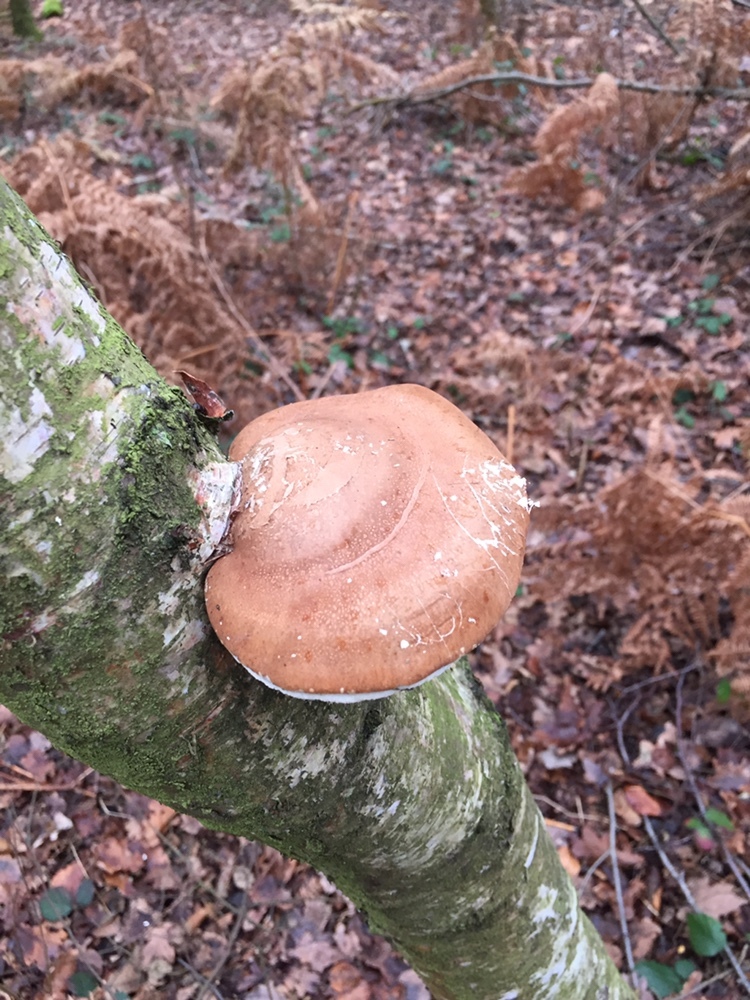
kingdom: Fungi
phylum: Basidiomycota
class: Agaricomycetes
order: Polyporales
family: Fomitopsidaceae
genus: Fomitopsis
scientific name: Fomitopsis betulina
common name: Birch polypore
